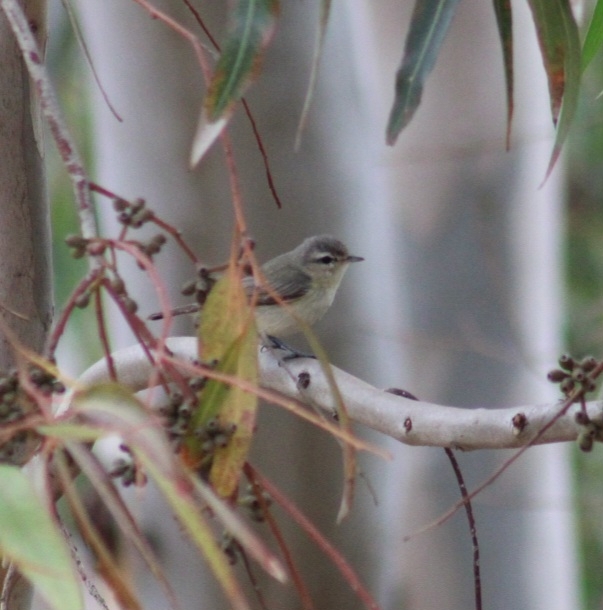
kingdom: Animalia
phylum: Chordata
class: Aves
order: Passeriformes
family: Vireonidae
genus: Vireo
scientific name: Vireo gilvus
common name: Warbling vireo
